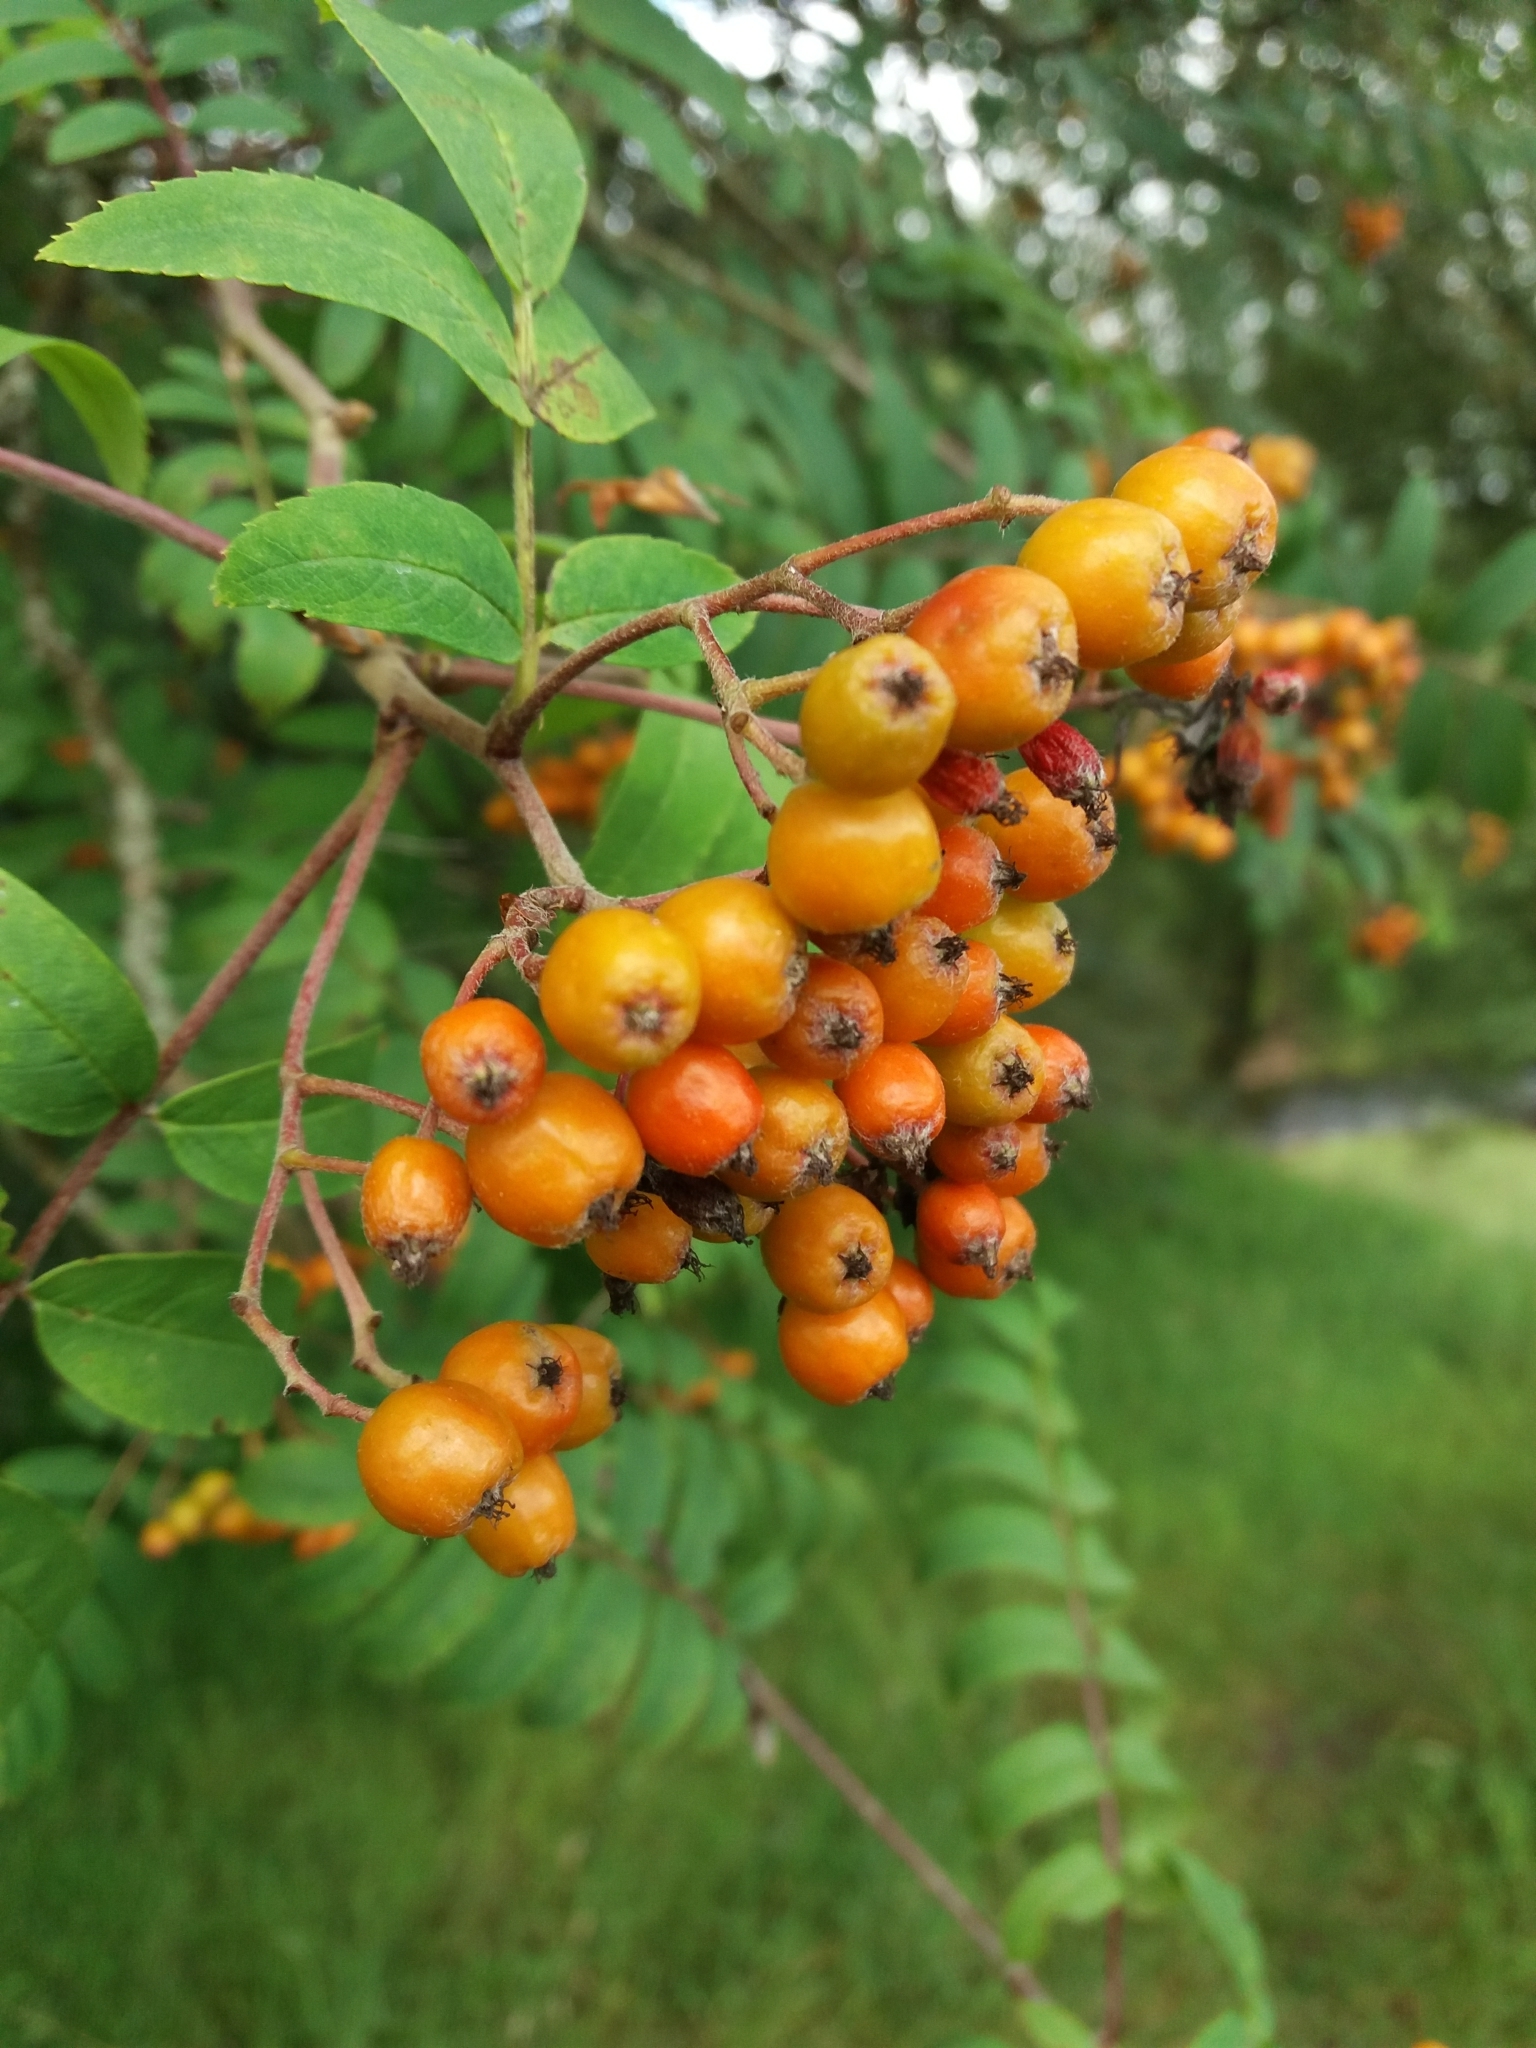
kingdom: Plantae
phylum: Tracheophyta
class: Magnoliopsida
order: Rosales
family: Rosaceae
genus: Sorbus
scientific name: Sorbus aucuparia
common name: Rowan
